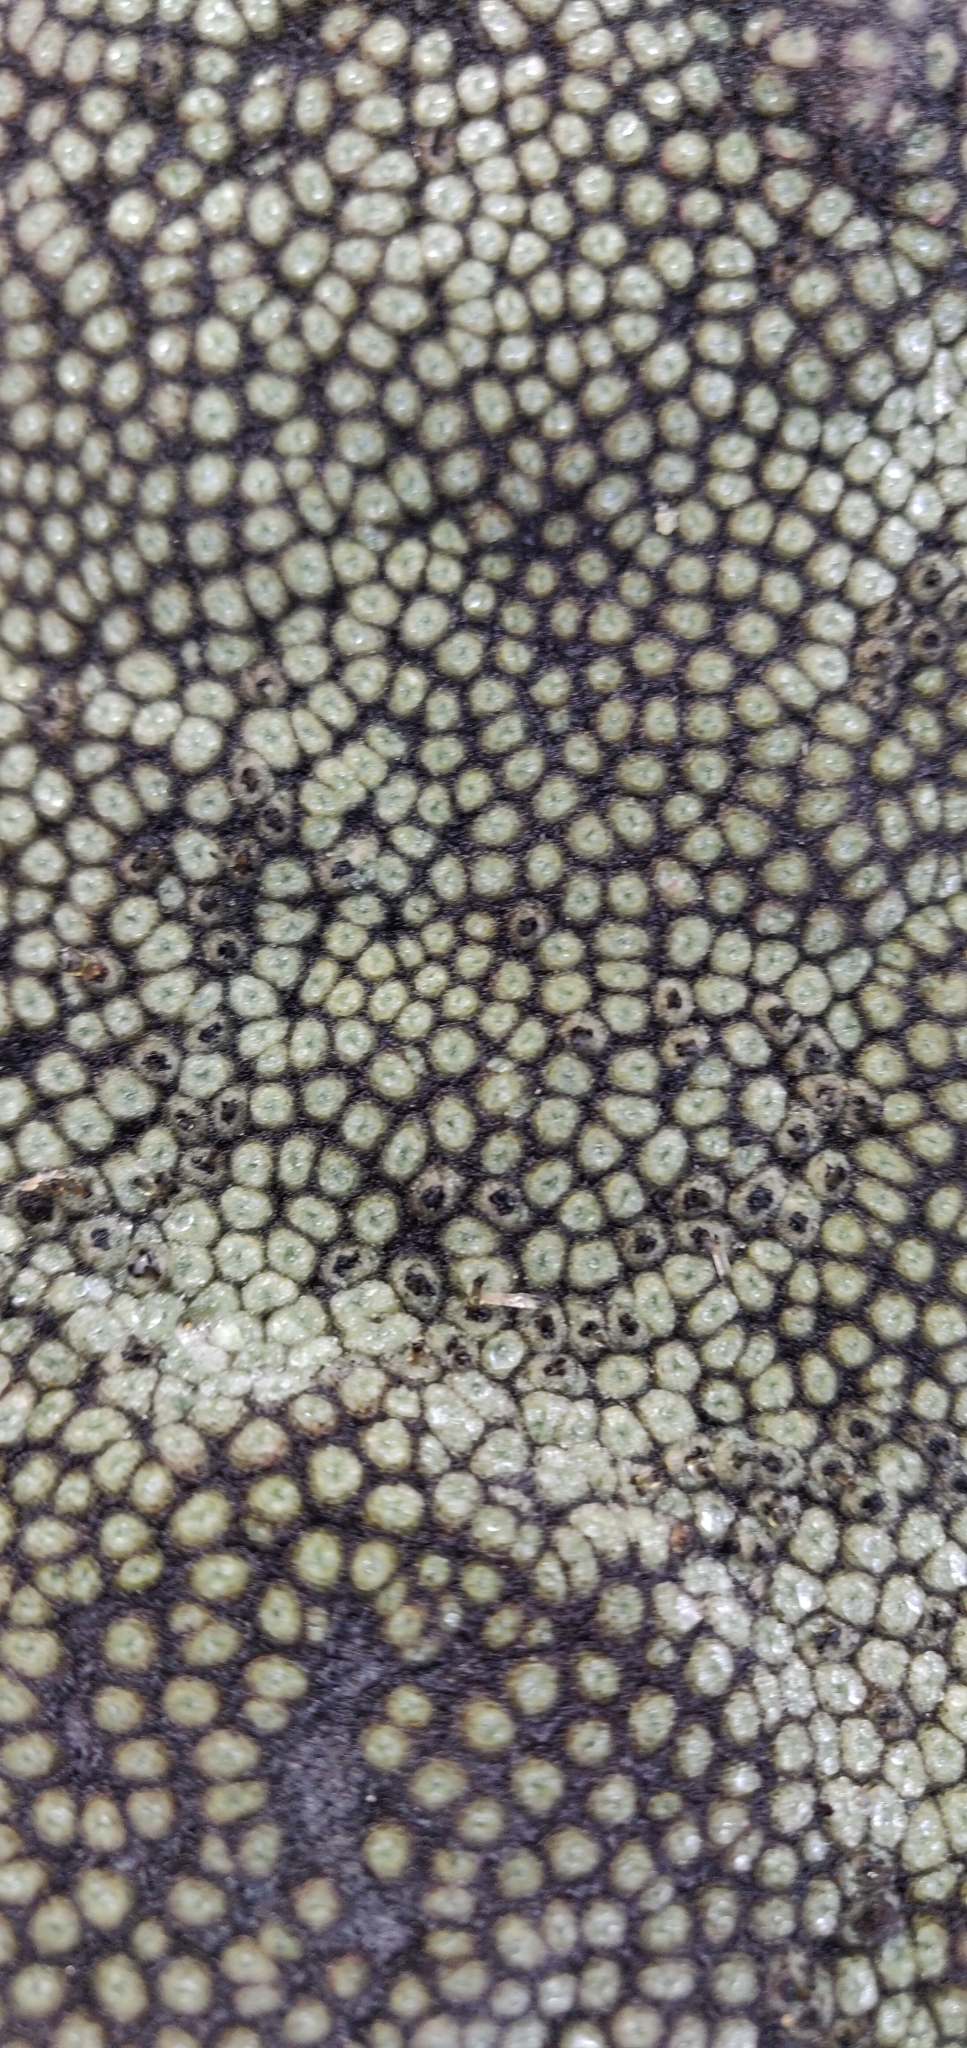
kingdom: Plantae
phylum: Tracheophyta
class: Magnoliopsida
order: Asterales
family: Asteraceae
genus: Raoulia
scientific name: Raoulia rubra
